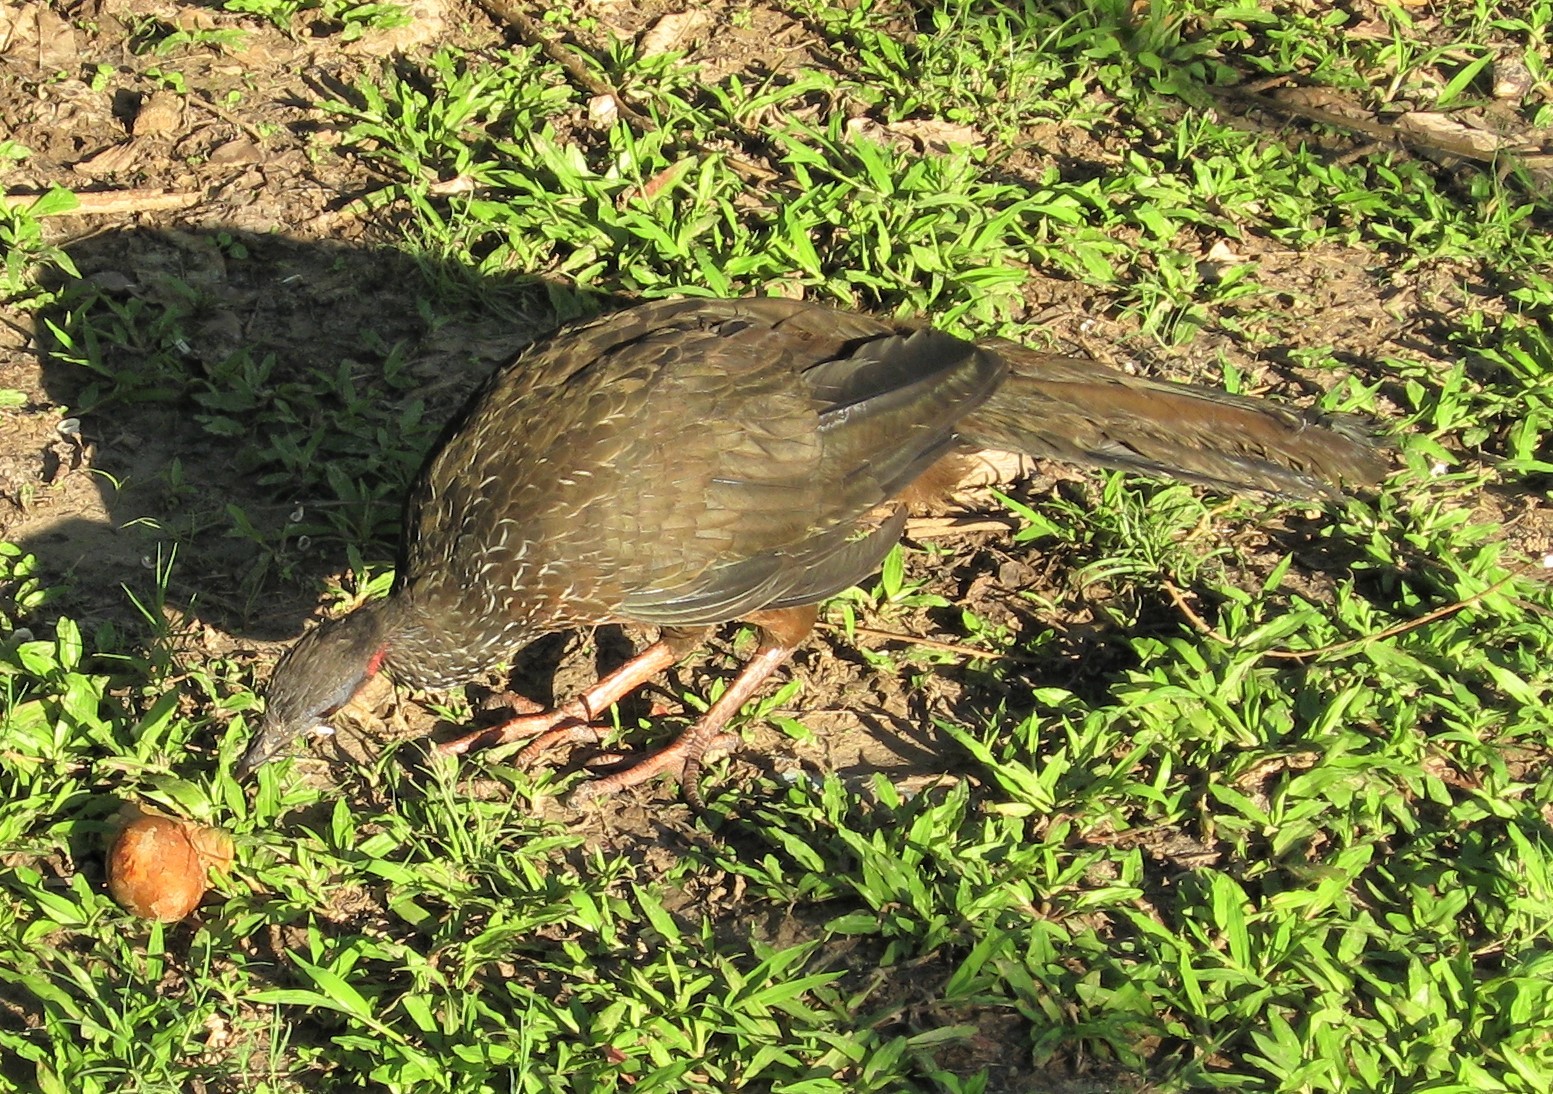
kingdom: Animalia
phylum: Chordata
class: Aves
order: Galliformes
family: Cracidae
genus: Ortalis
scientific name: Ortalis guttata
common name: Speckled chachalaca
